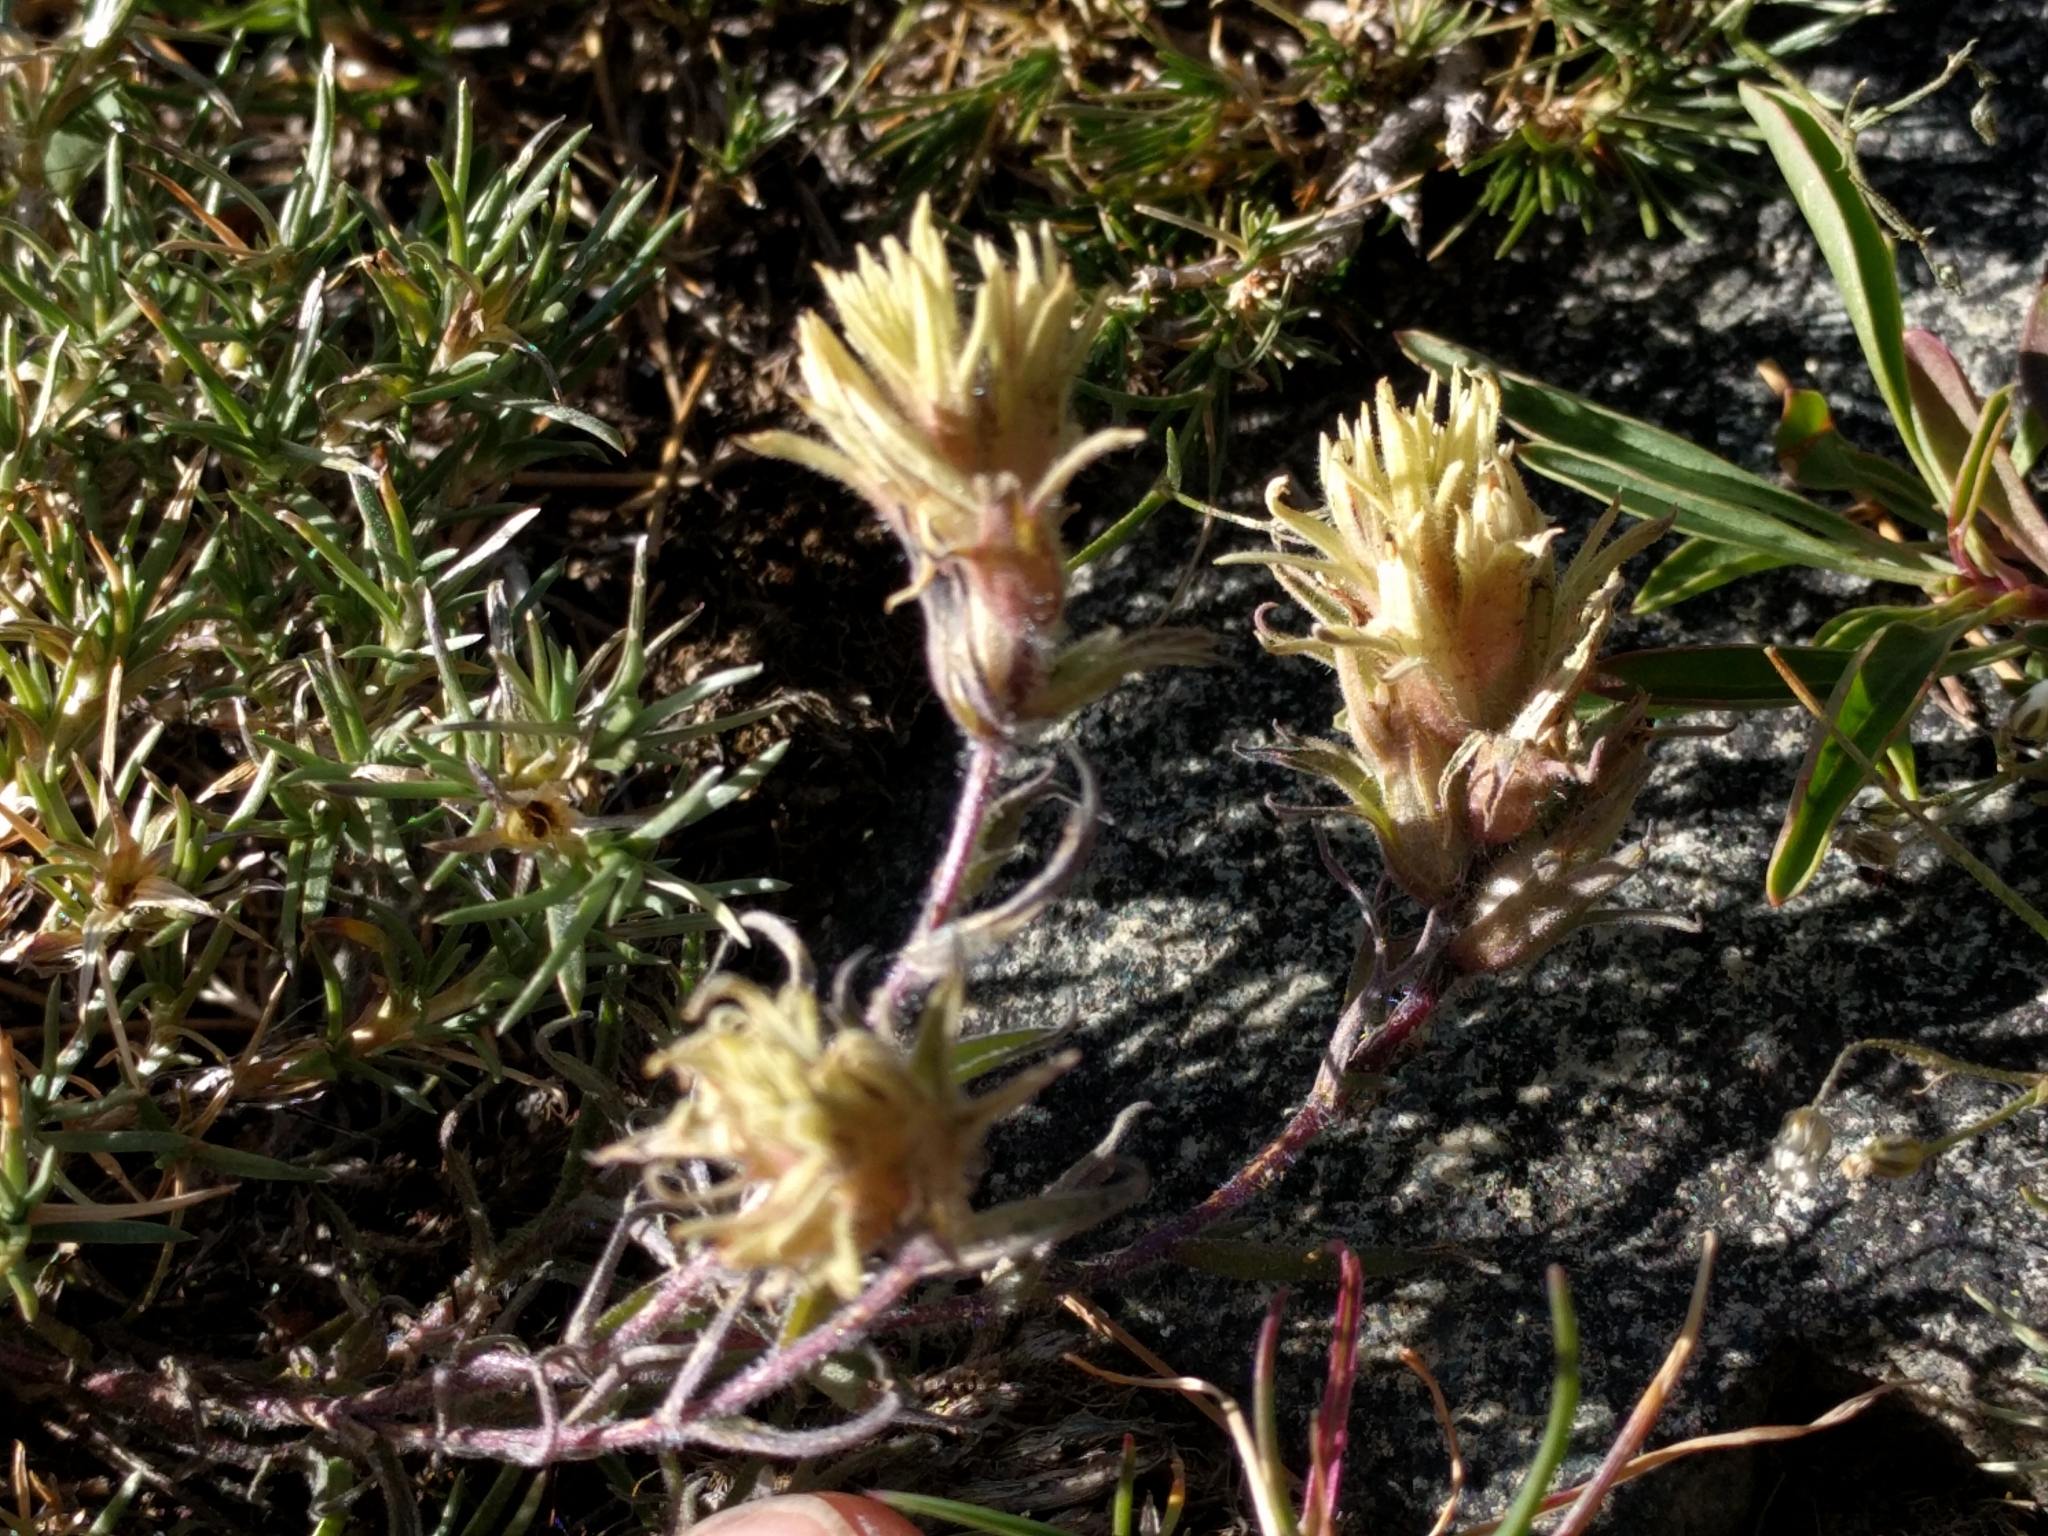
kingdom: Plantae
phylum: Tracheophyta
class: Magnoliopsida
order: Lamiales
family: Orobanchaceae
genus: Castilleja
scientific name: Castilleja nana
